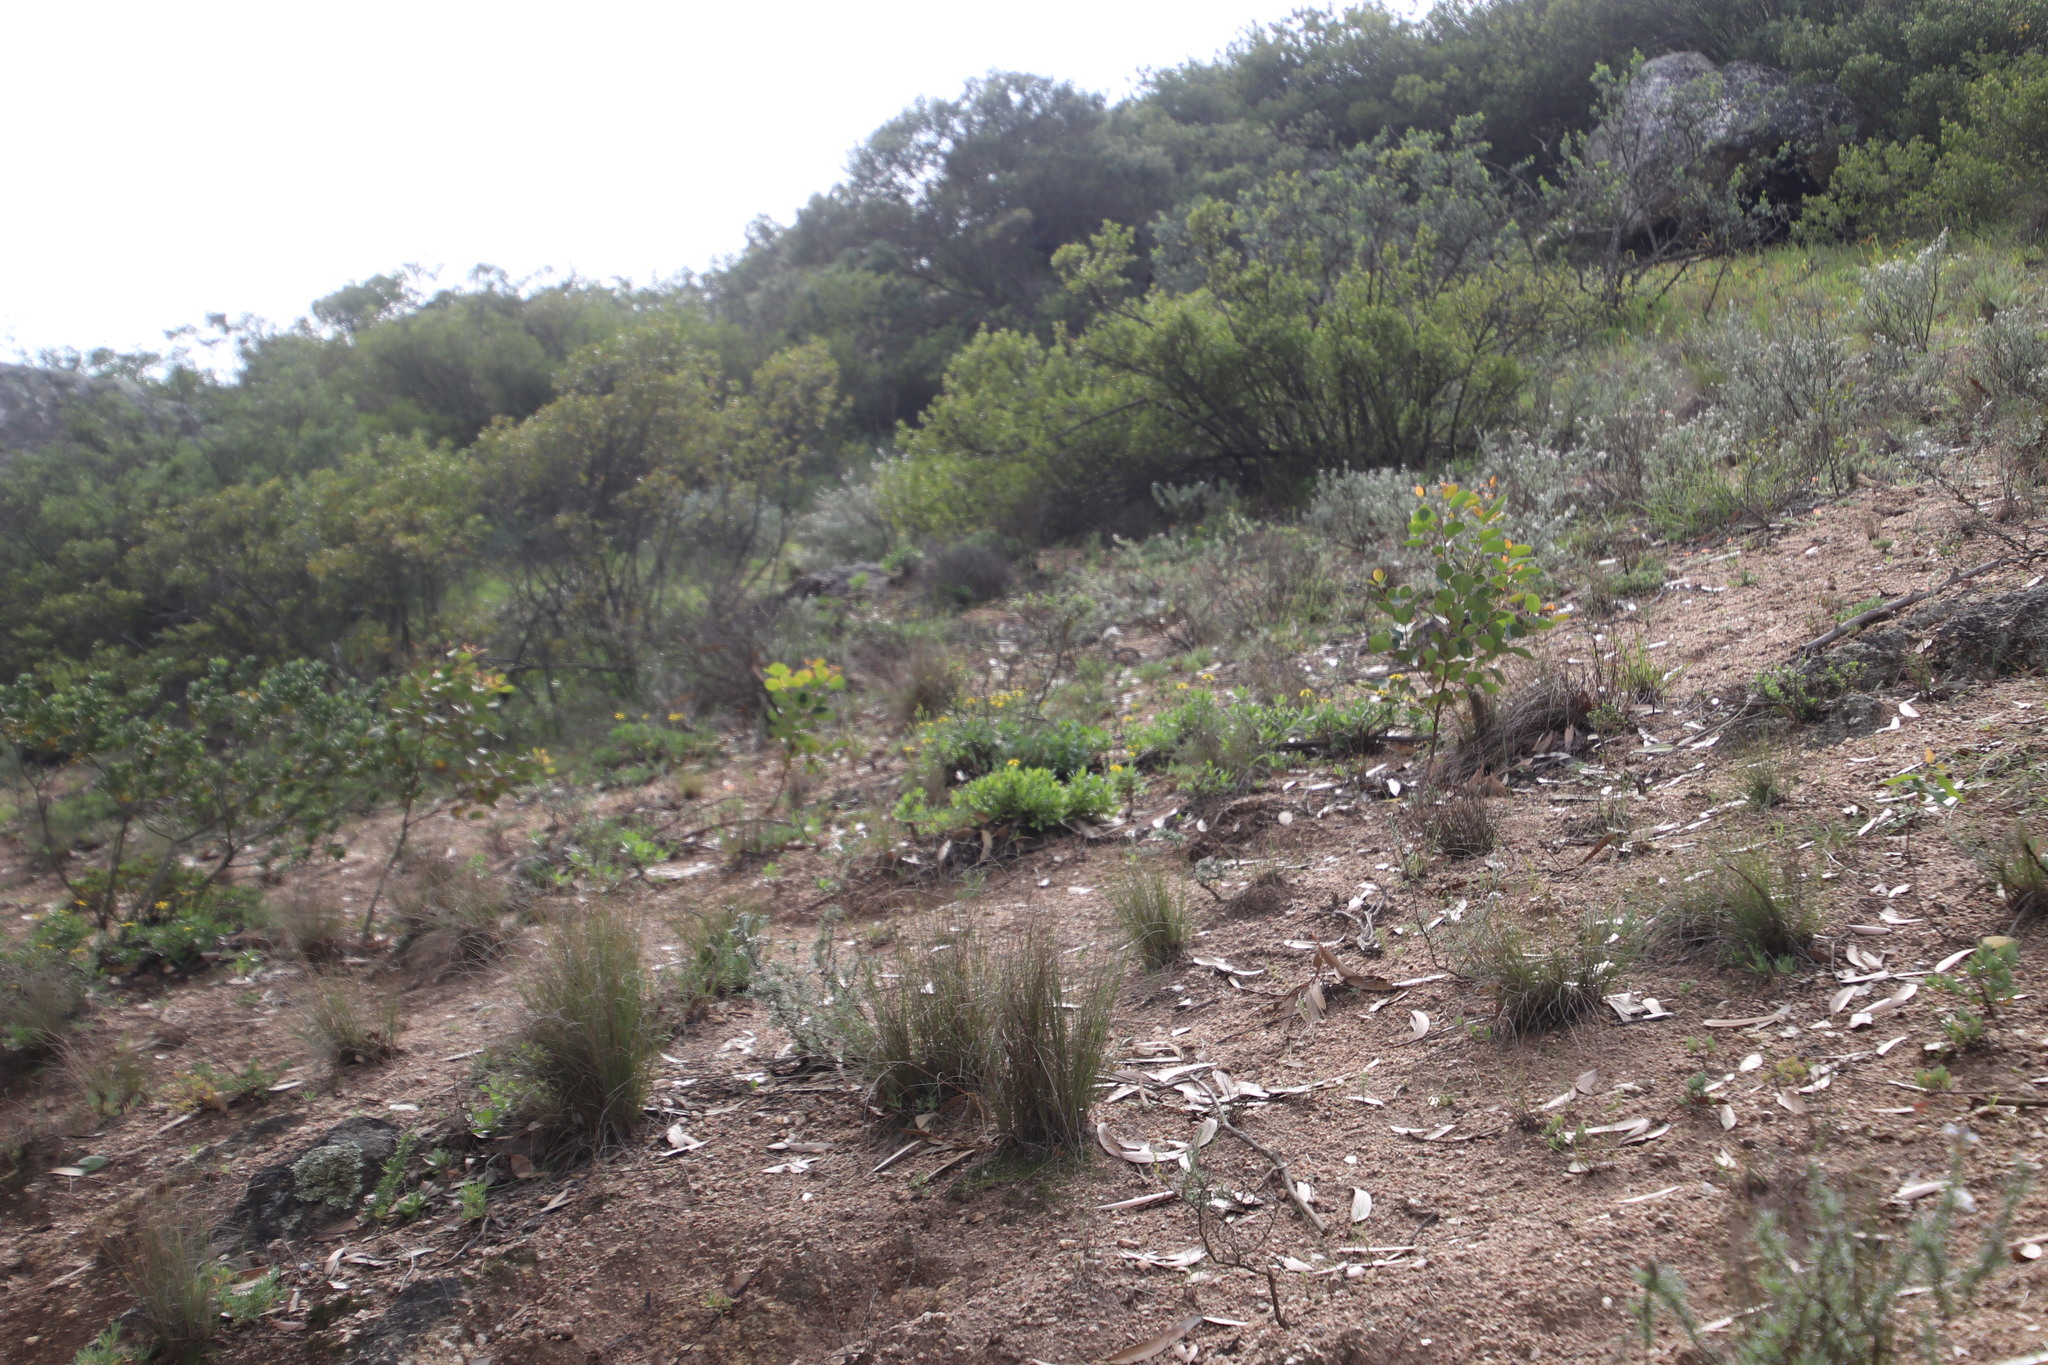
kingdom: Plantae
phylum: Tracheophyta
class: Magnoliopsida
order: Asterales
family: Asteraceae
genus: Eriocephalus
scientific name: Eriocephalus africanus
